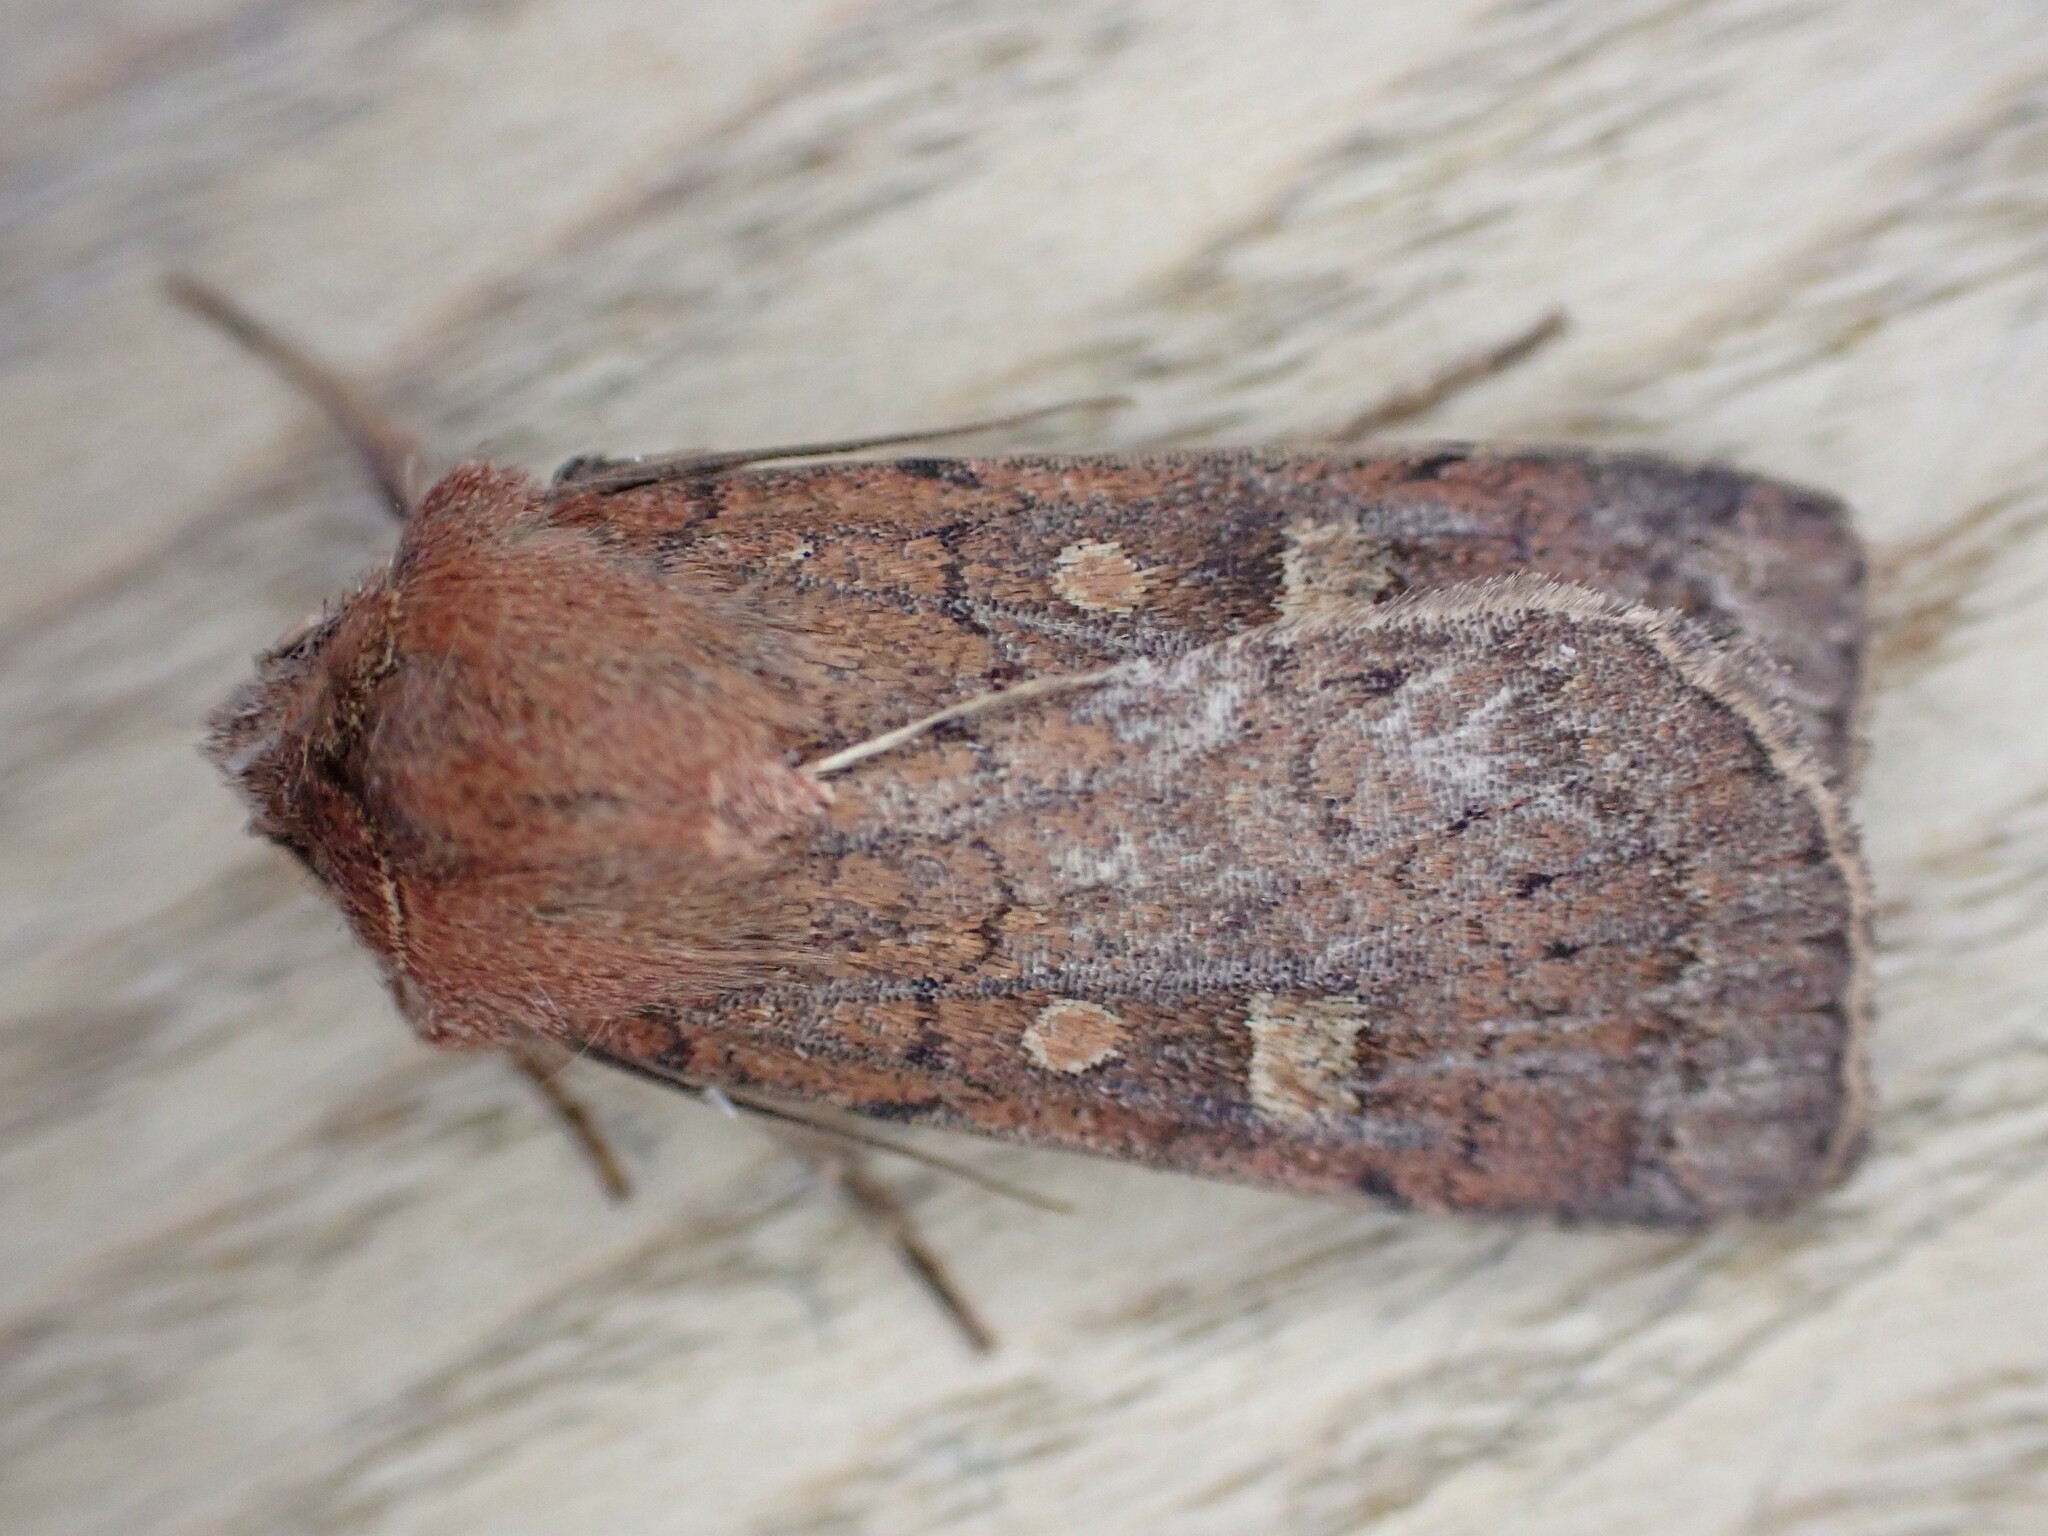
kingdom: Animalia
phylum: Arthropoda
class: Insecta
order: Lepidoptera
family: Noctuidae
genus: Xestia
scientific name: Xestia xanthographa
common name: Square-spot rustic
